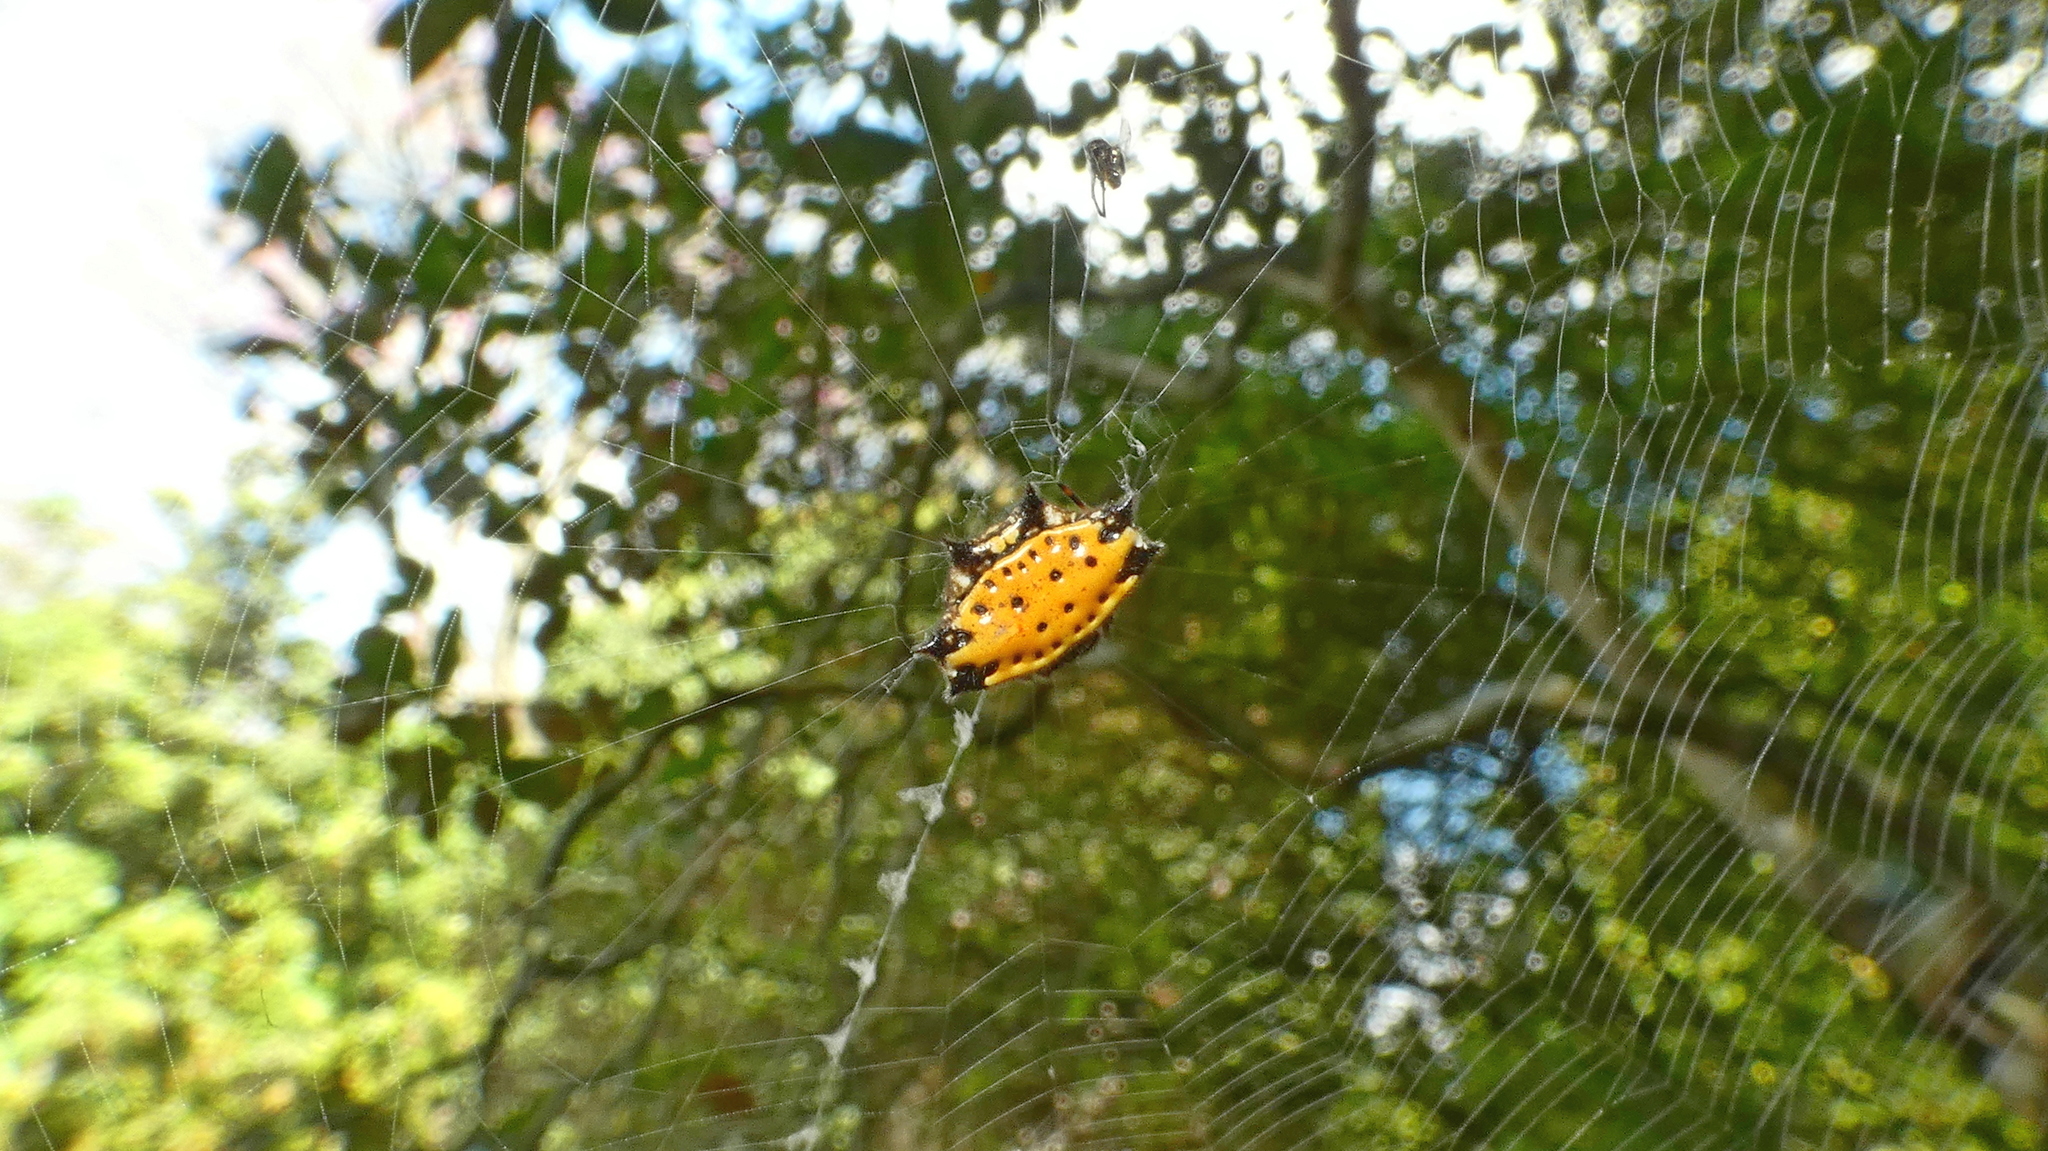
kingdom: Animalia
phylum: Arthropoda
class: Arachnida
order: Araneae
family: Araneidae
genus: Gasteracantha
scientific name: Gasteracantha cancriformis
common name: Orb weavers
